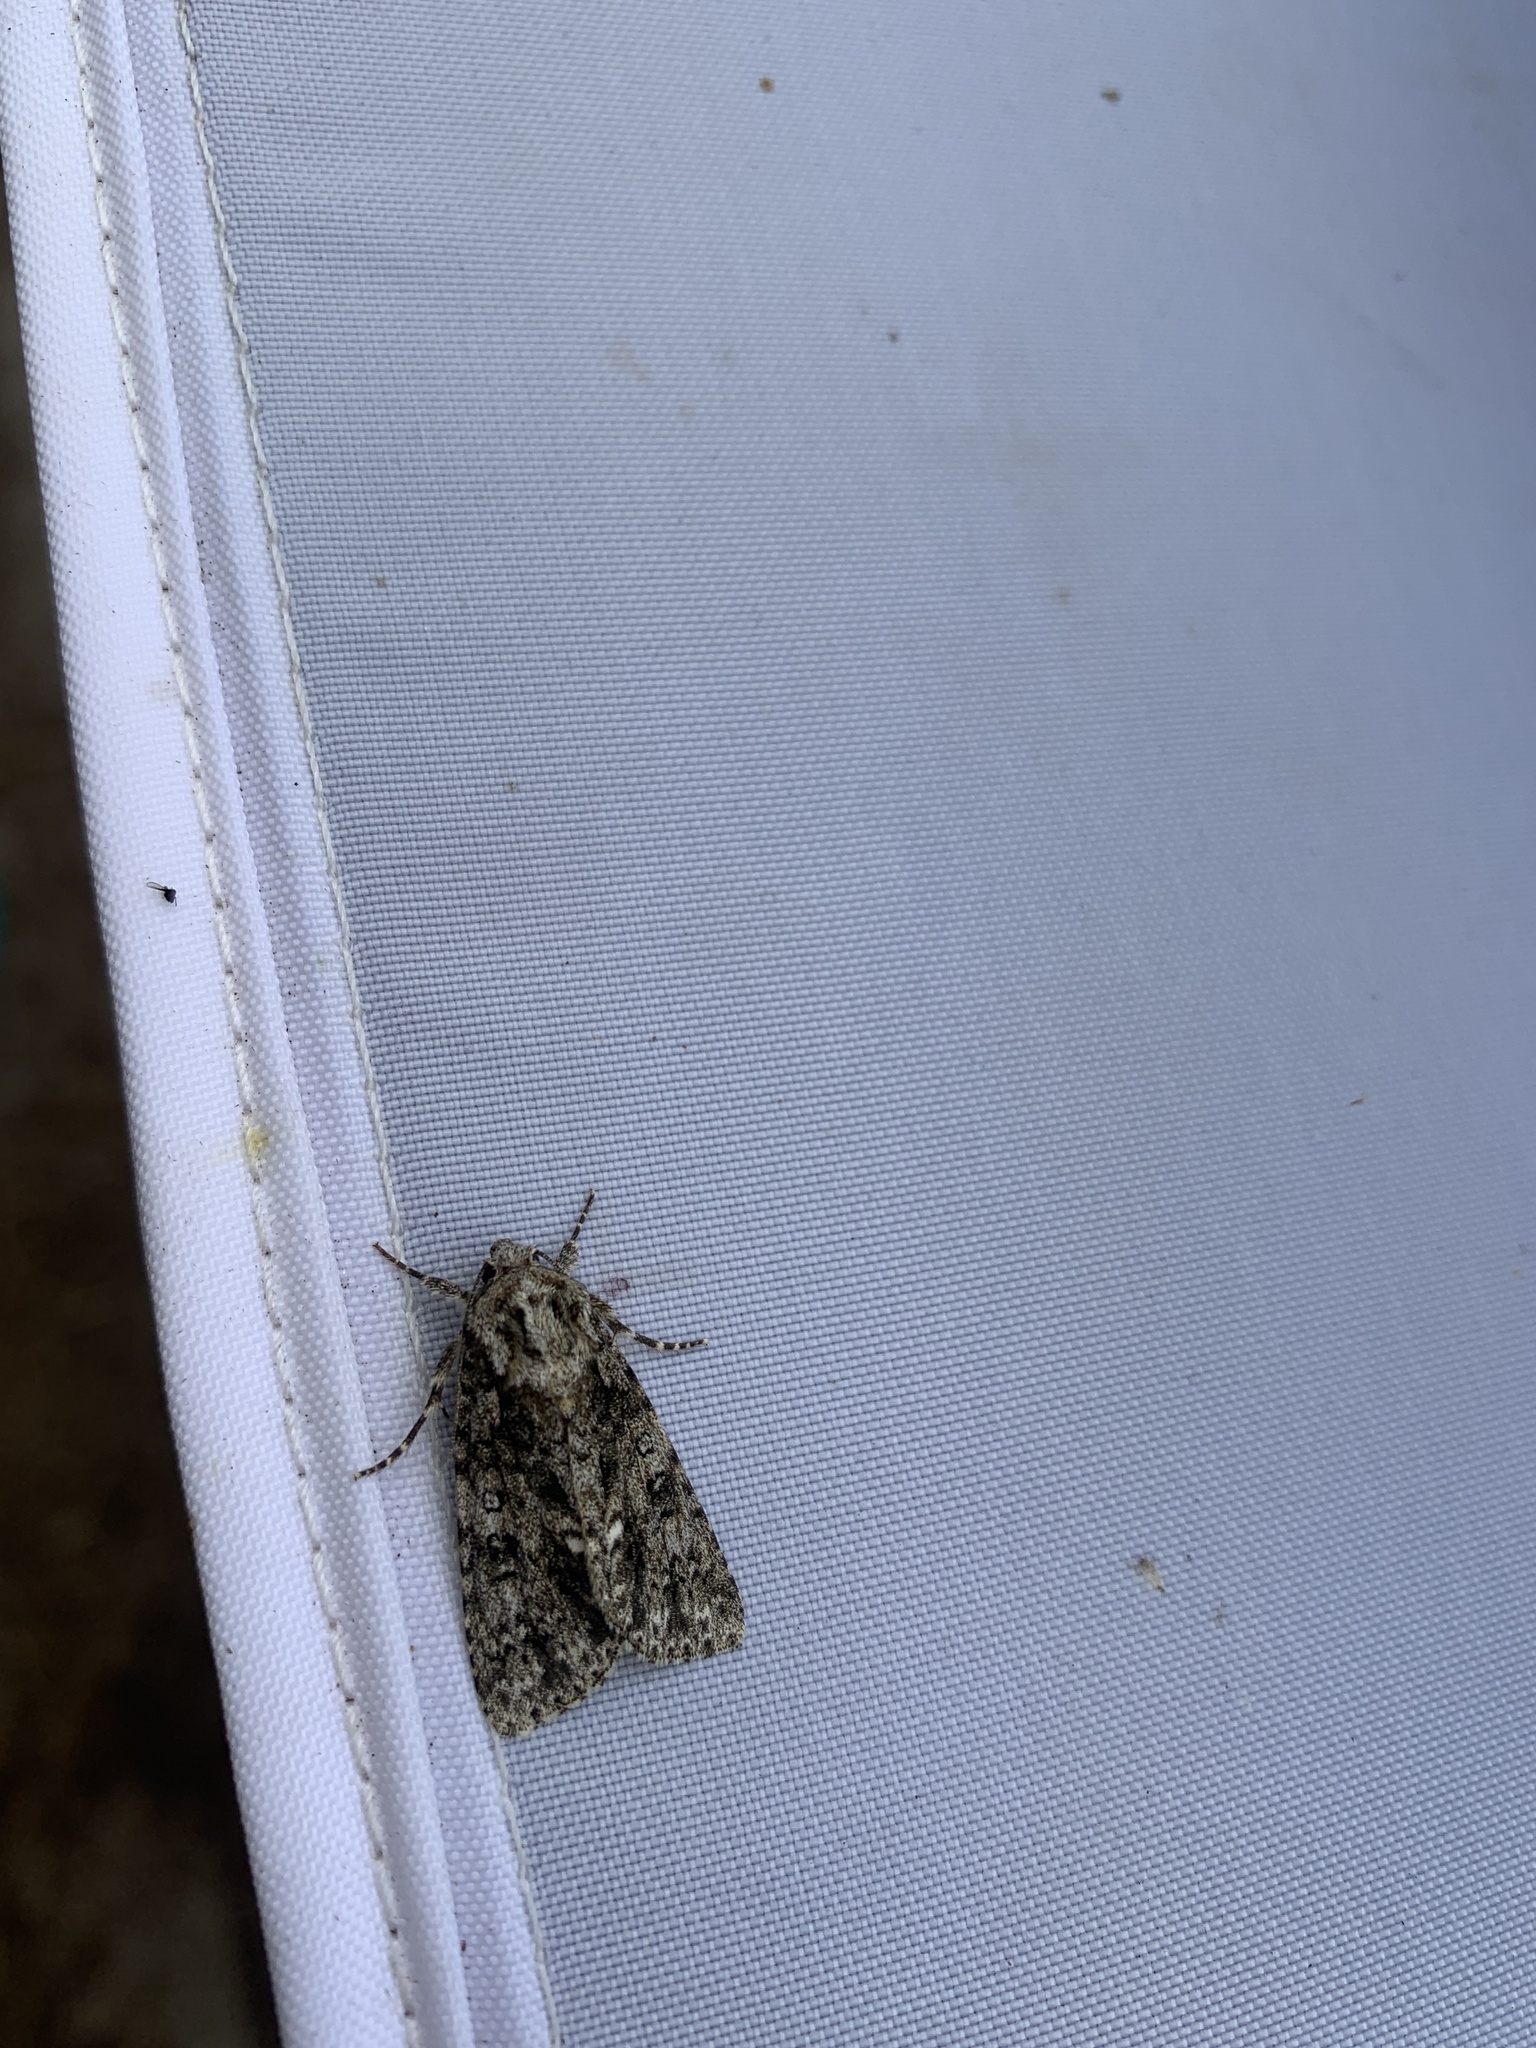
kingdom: Animalia
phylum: Arthropoda
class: Insecta
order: Lepidoptera
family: Noctuidae
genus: Acronicta
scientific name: Acronicta rumicis
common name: Knot grass
